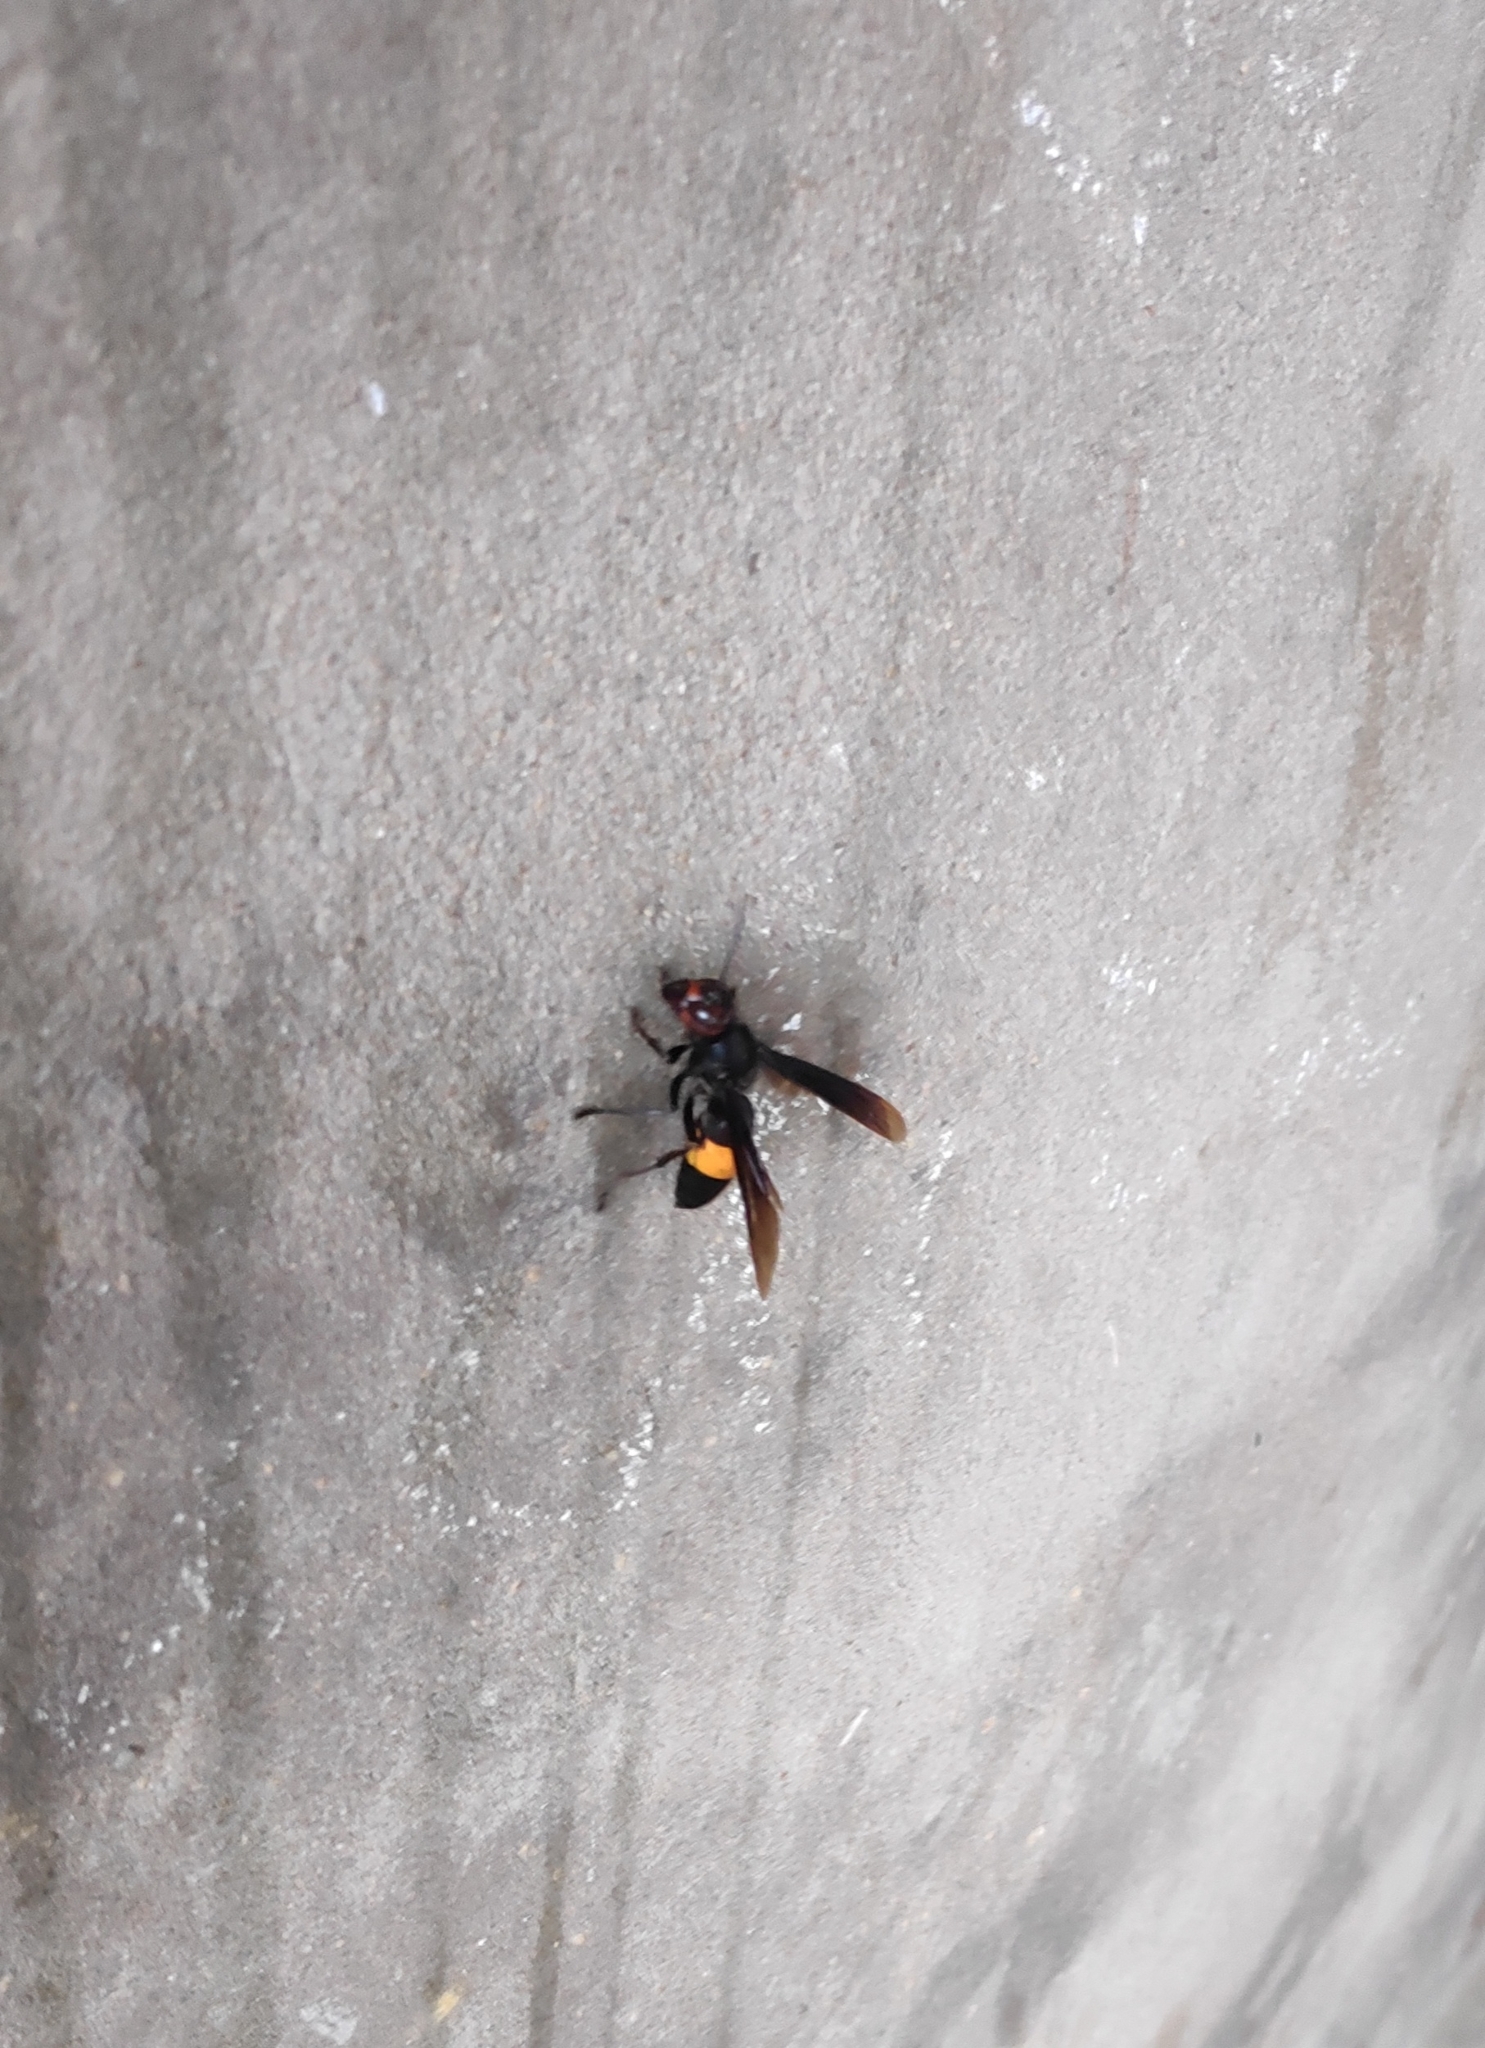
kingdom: Animalia
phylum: Arthropoda
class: Insecta
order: Hymenoptera
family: Vespidae
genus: Vespa
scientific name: Vespa tropica
